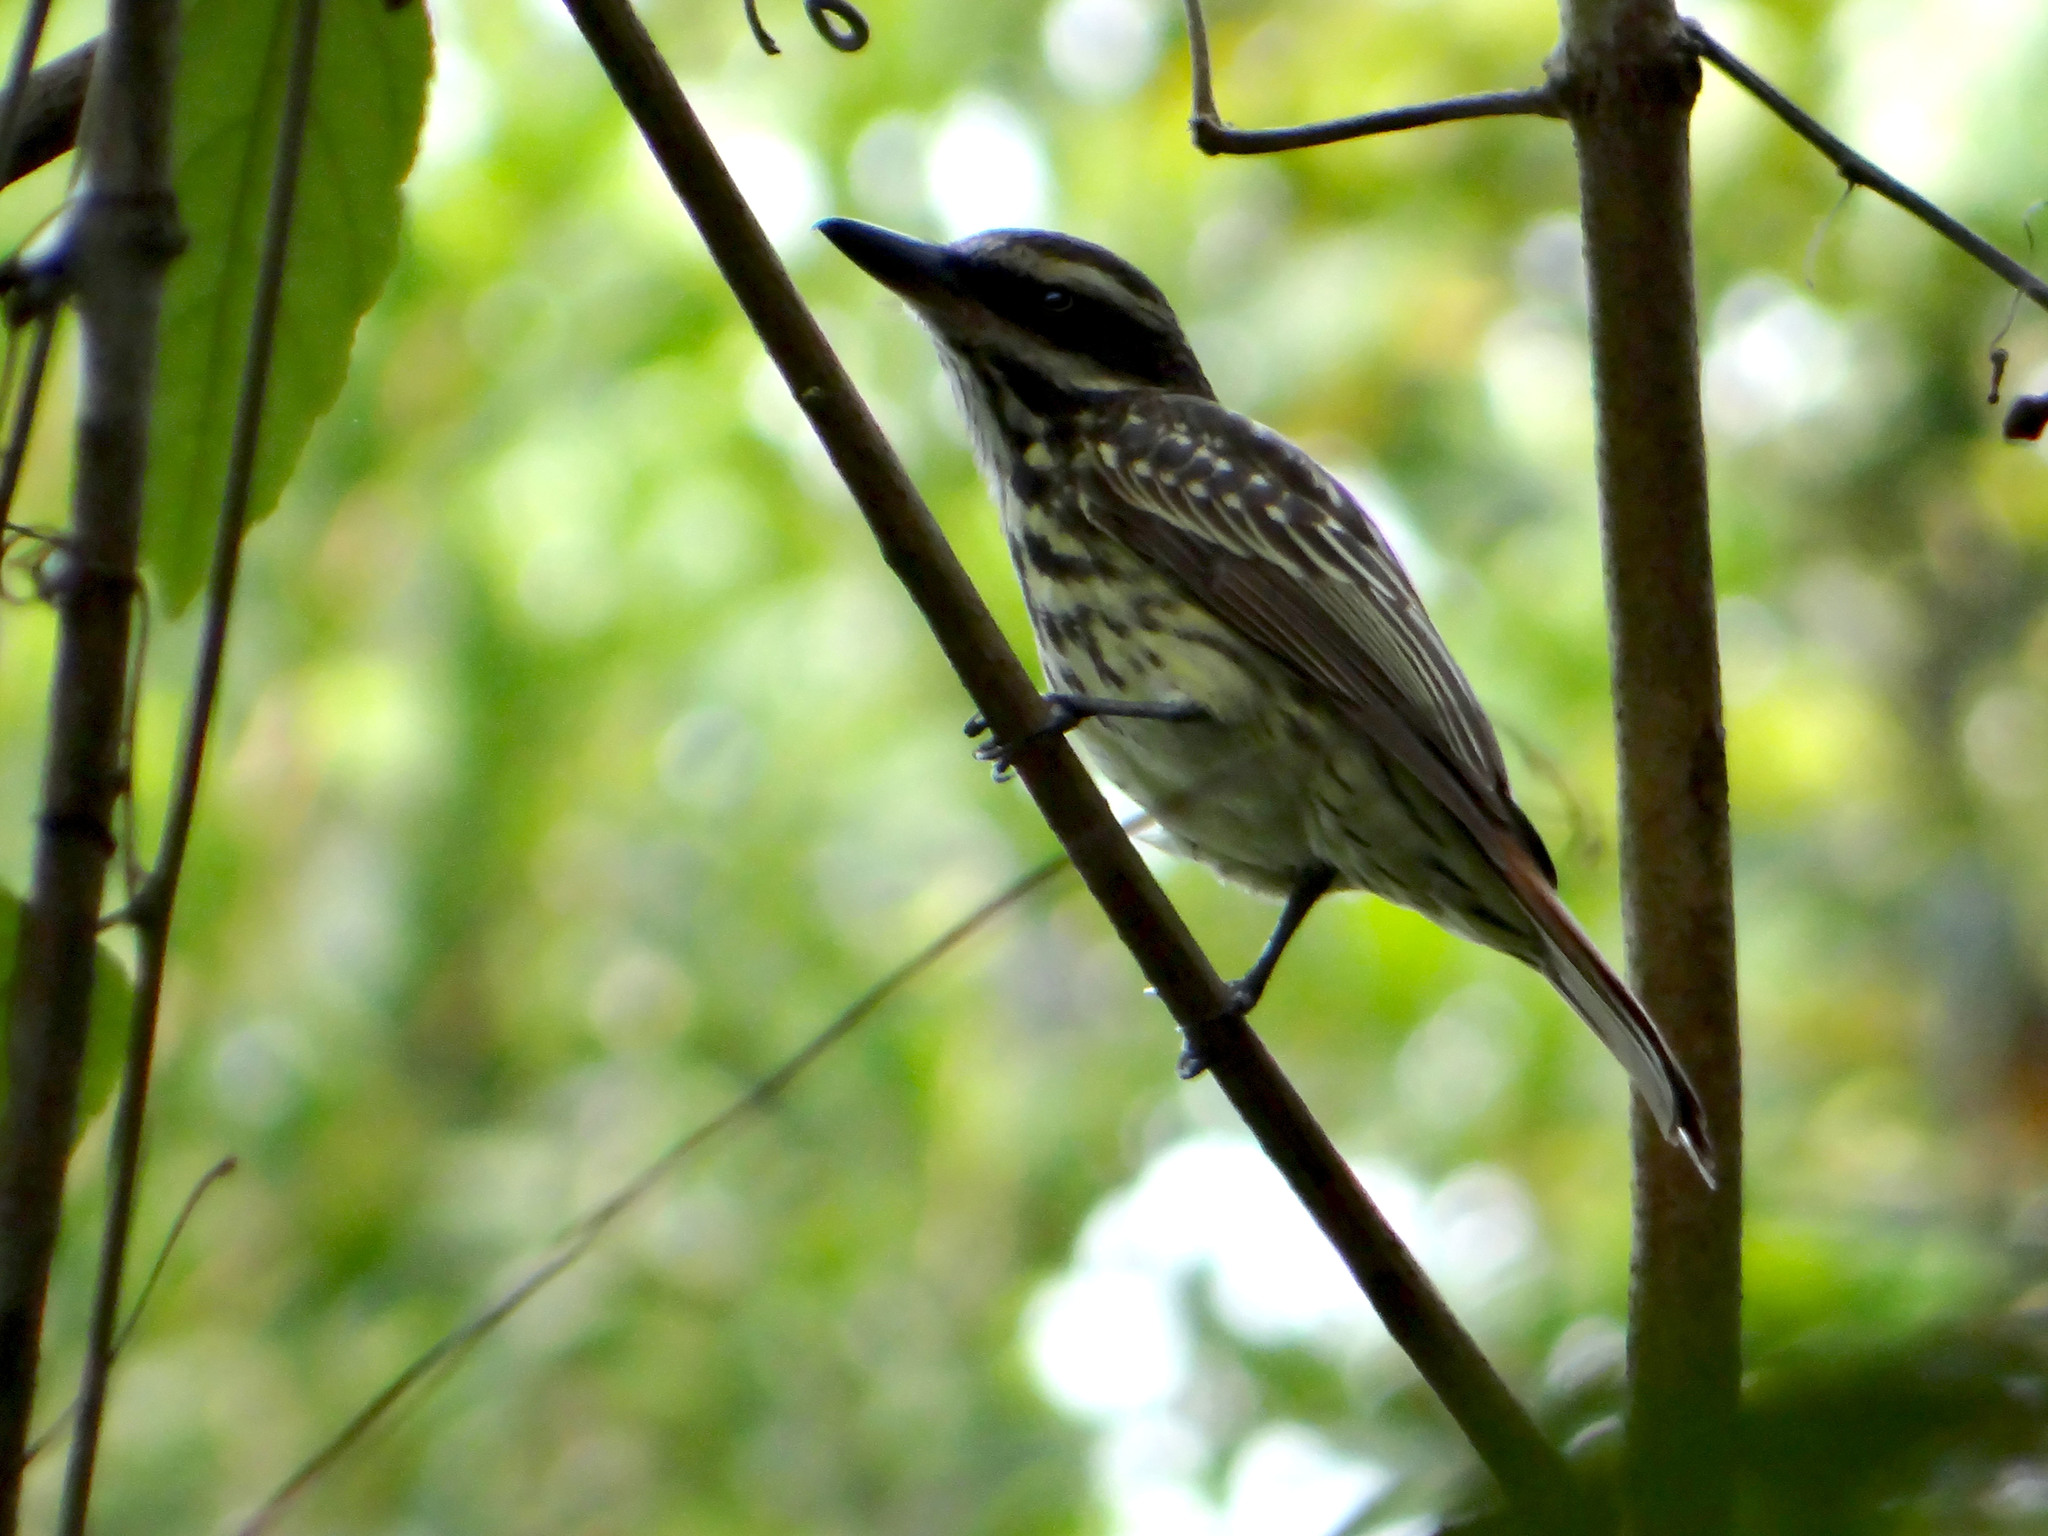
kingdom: Animalia
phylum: Chordata
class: Aves
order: Passeriformes
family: Tyrannidae
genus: Myiodynastes
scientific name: Myiodynastes maculatus
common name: Streaked flycatcher
